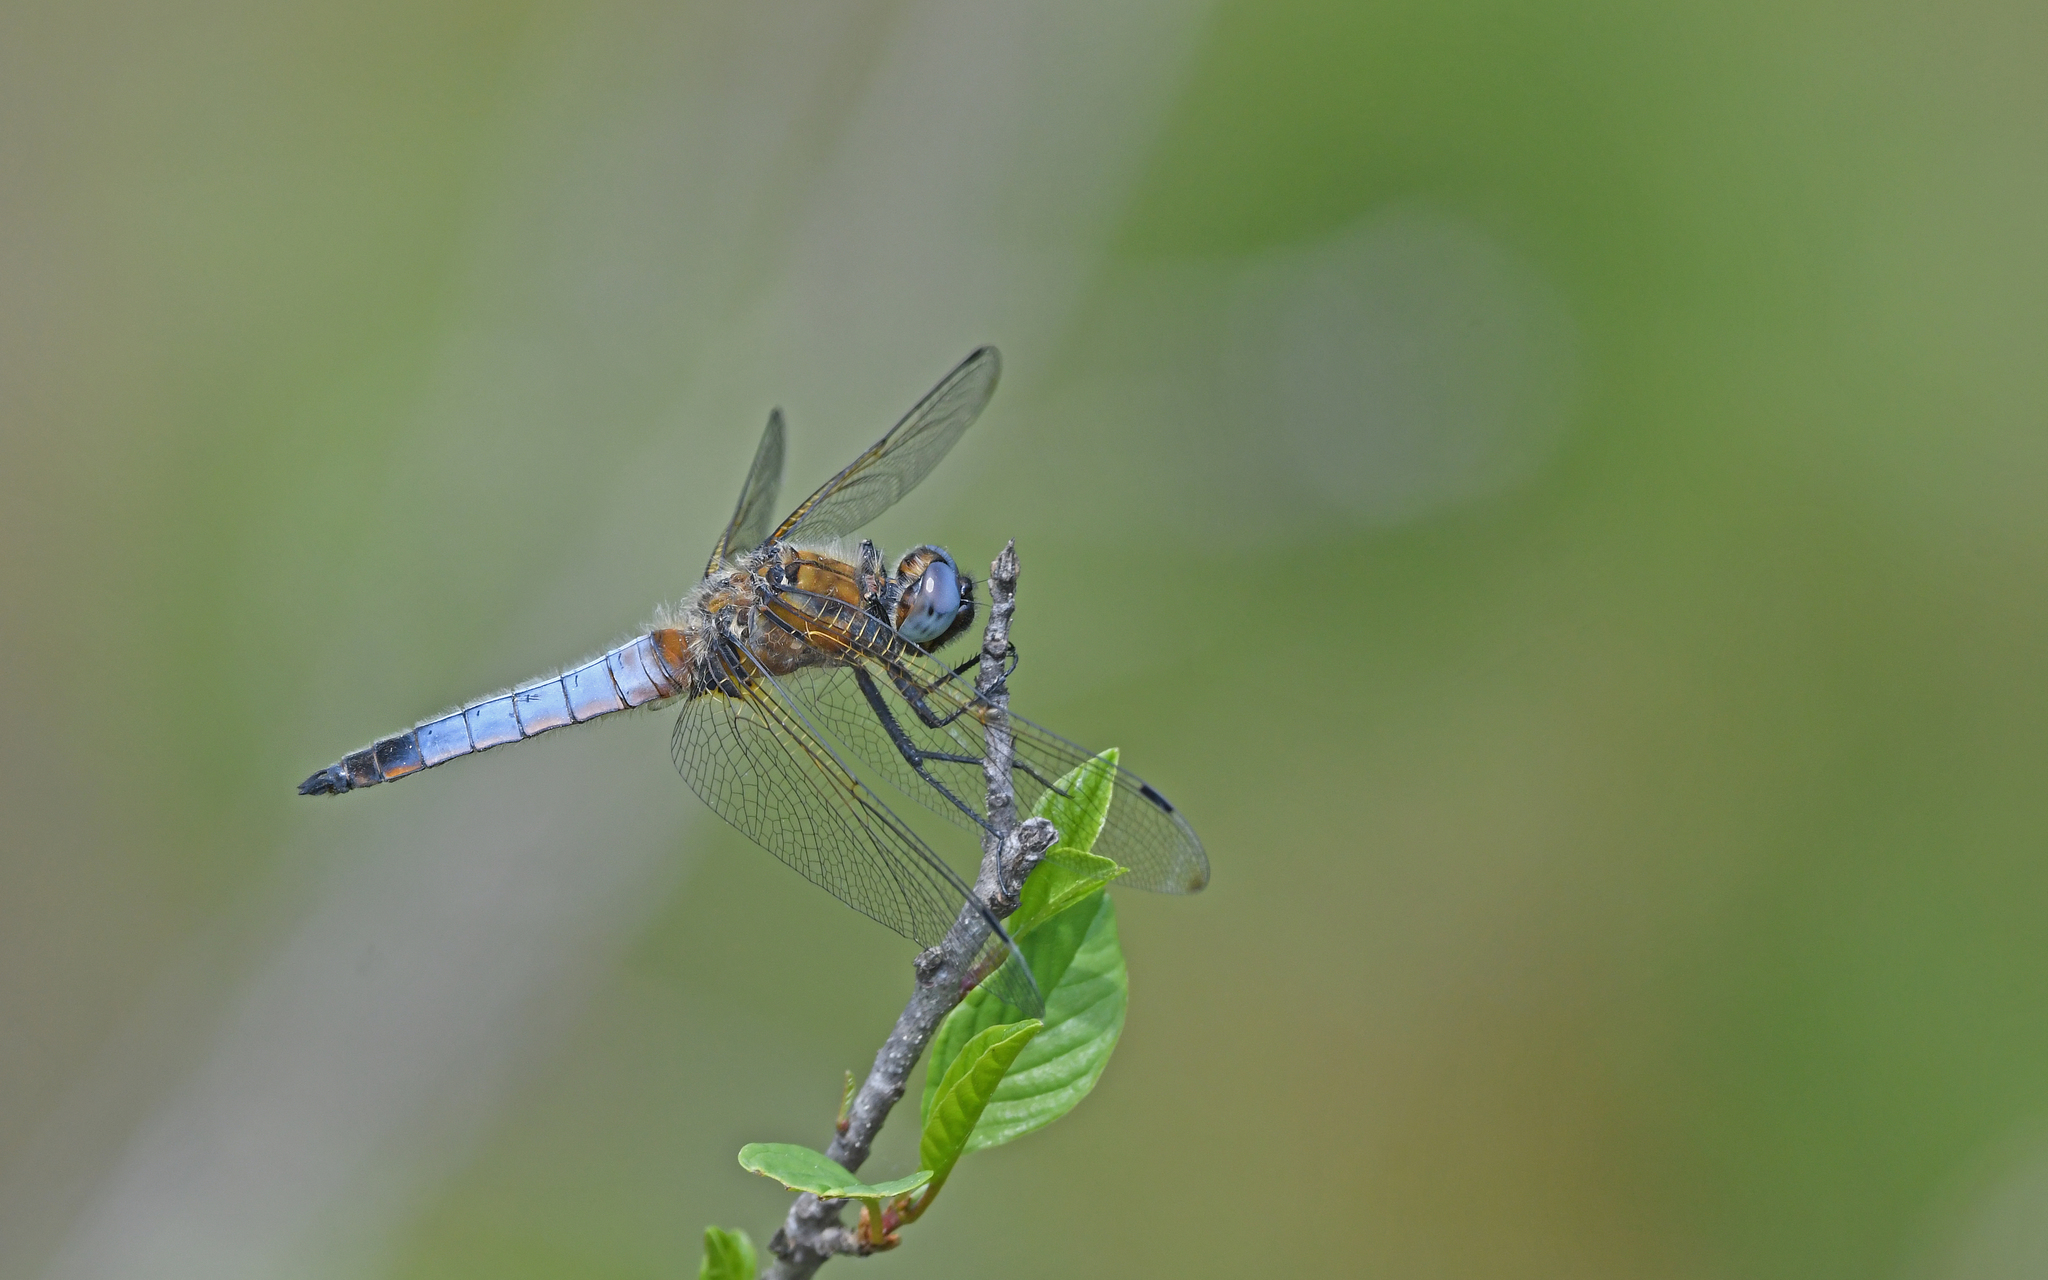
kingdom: Animalia
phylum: Arthropoda
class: Insecta
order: Odonata
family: Libellulidae
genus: Libellula
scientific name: Libellula fulva
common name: Blue chaser
